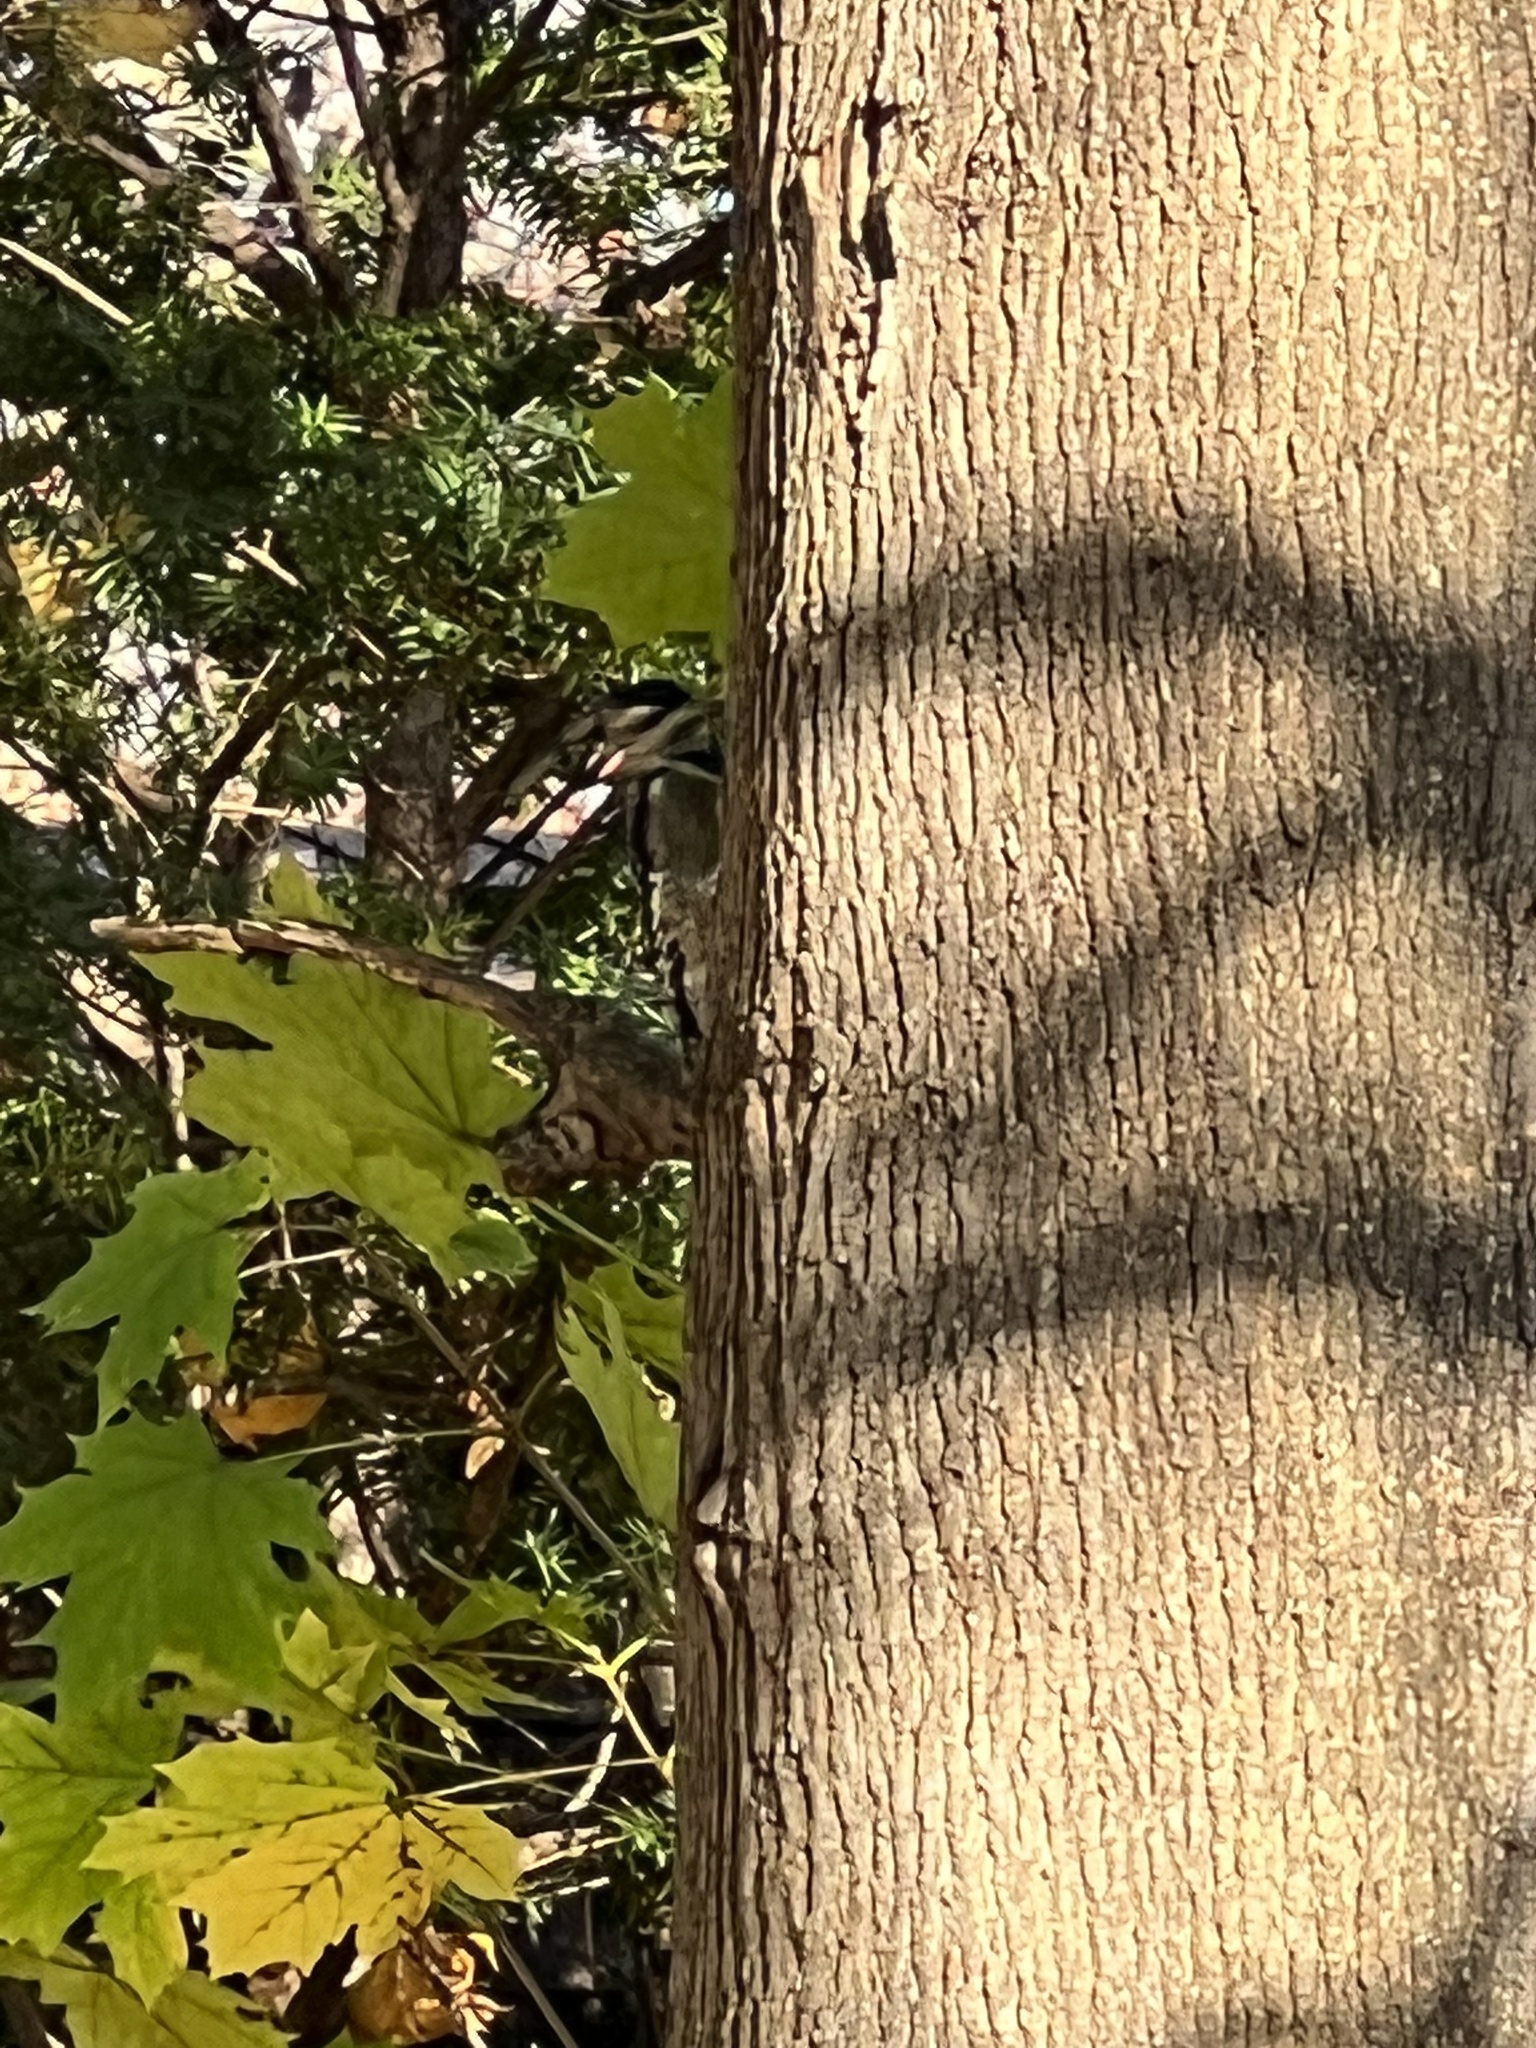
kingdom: Animalia
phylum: Chordata
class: Aves
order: Piciformes
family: Picidae
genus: Sphyrapicus
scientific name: Sphyrapicus varius
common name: Yellow-bellied sapsucker
